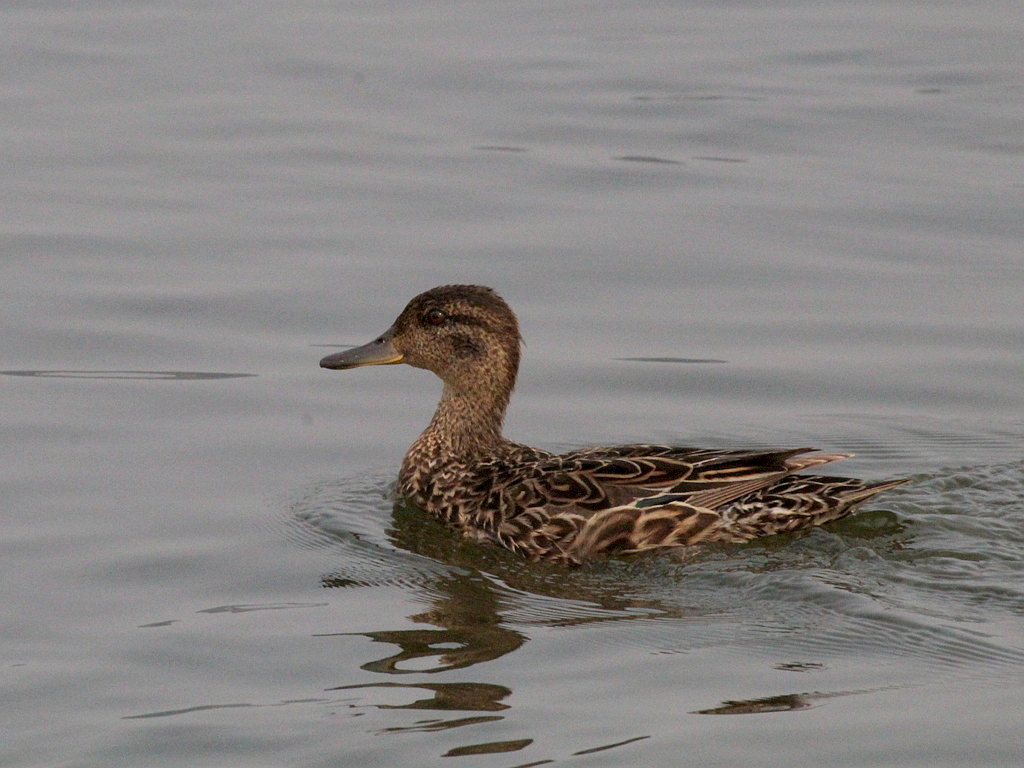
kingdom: Animalia
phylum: Chordata
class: Aves
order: Anseriformes
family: Anatidae
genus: Anas
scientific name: Anas crecca
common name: Eurasian teal
